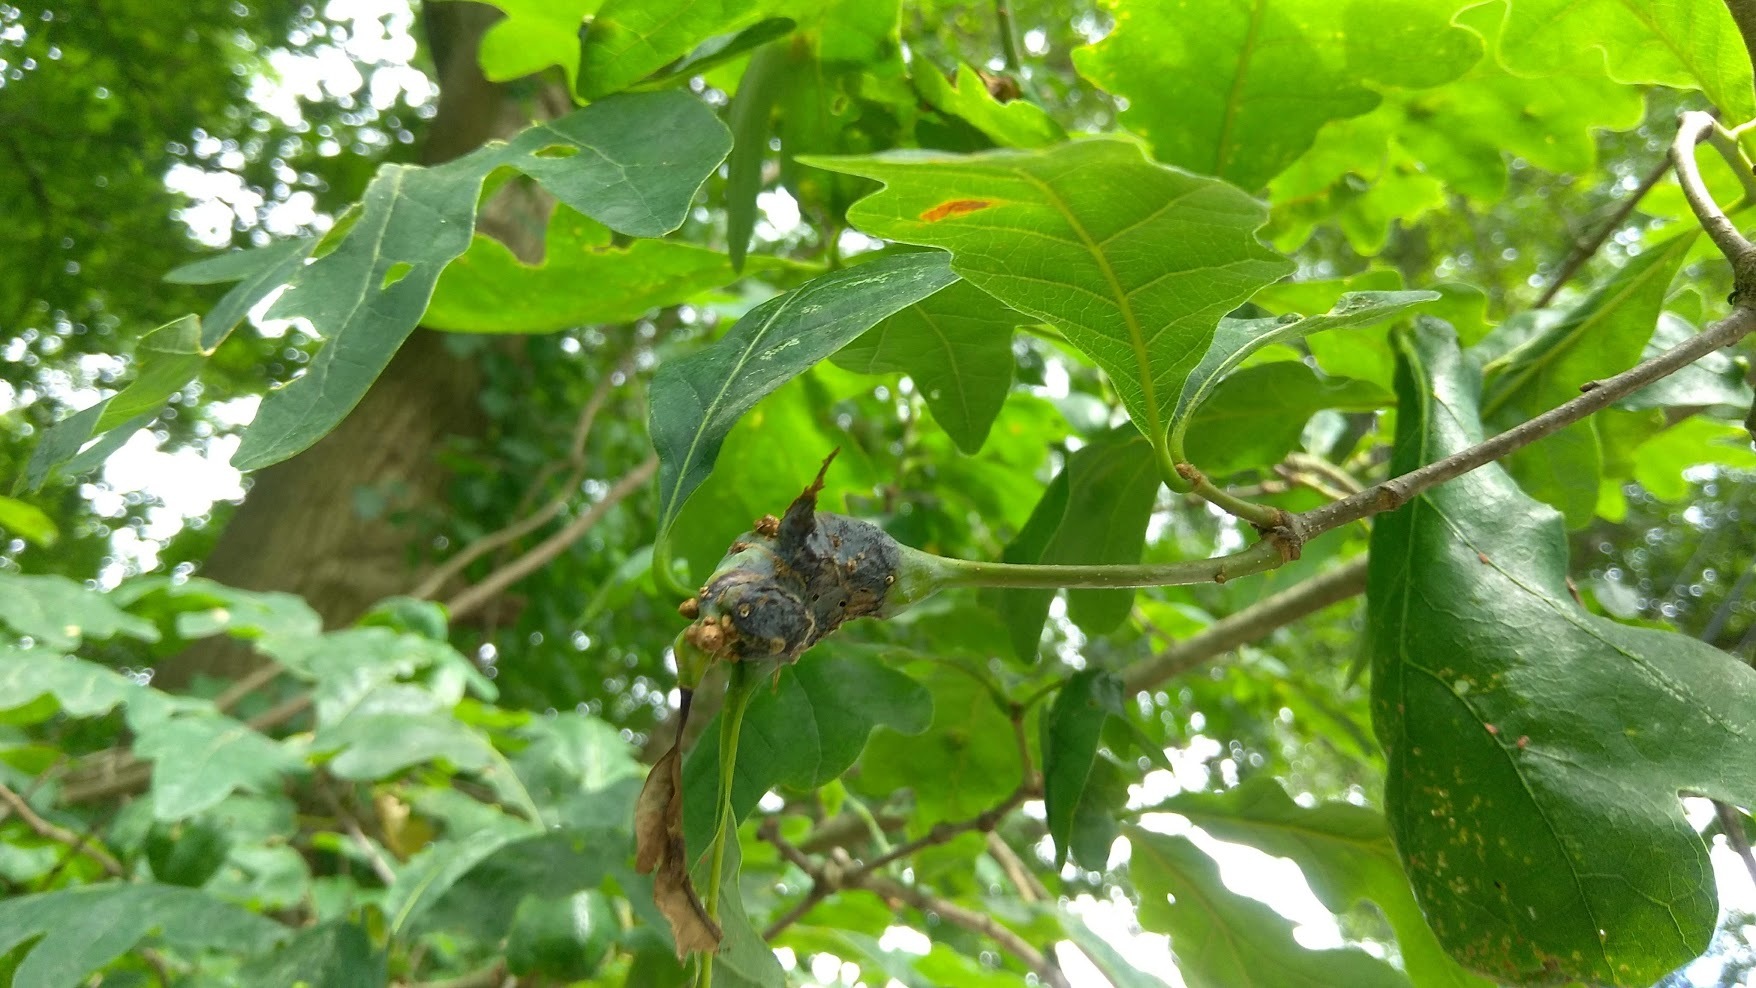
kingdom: Animalia
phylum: Arthropoda
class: Insecta
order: Hymenoptera
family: Cynipidae
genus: Neuroterus
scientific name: Neuroterus quercusbaccarum
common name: Common spangle gall
